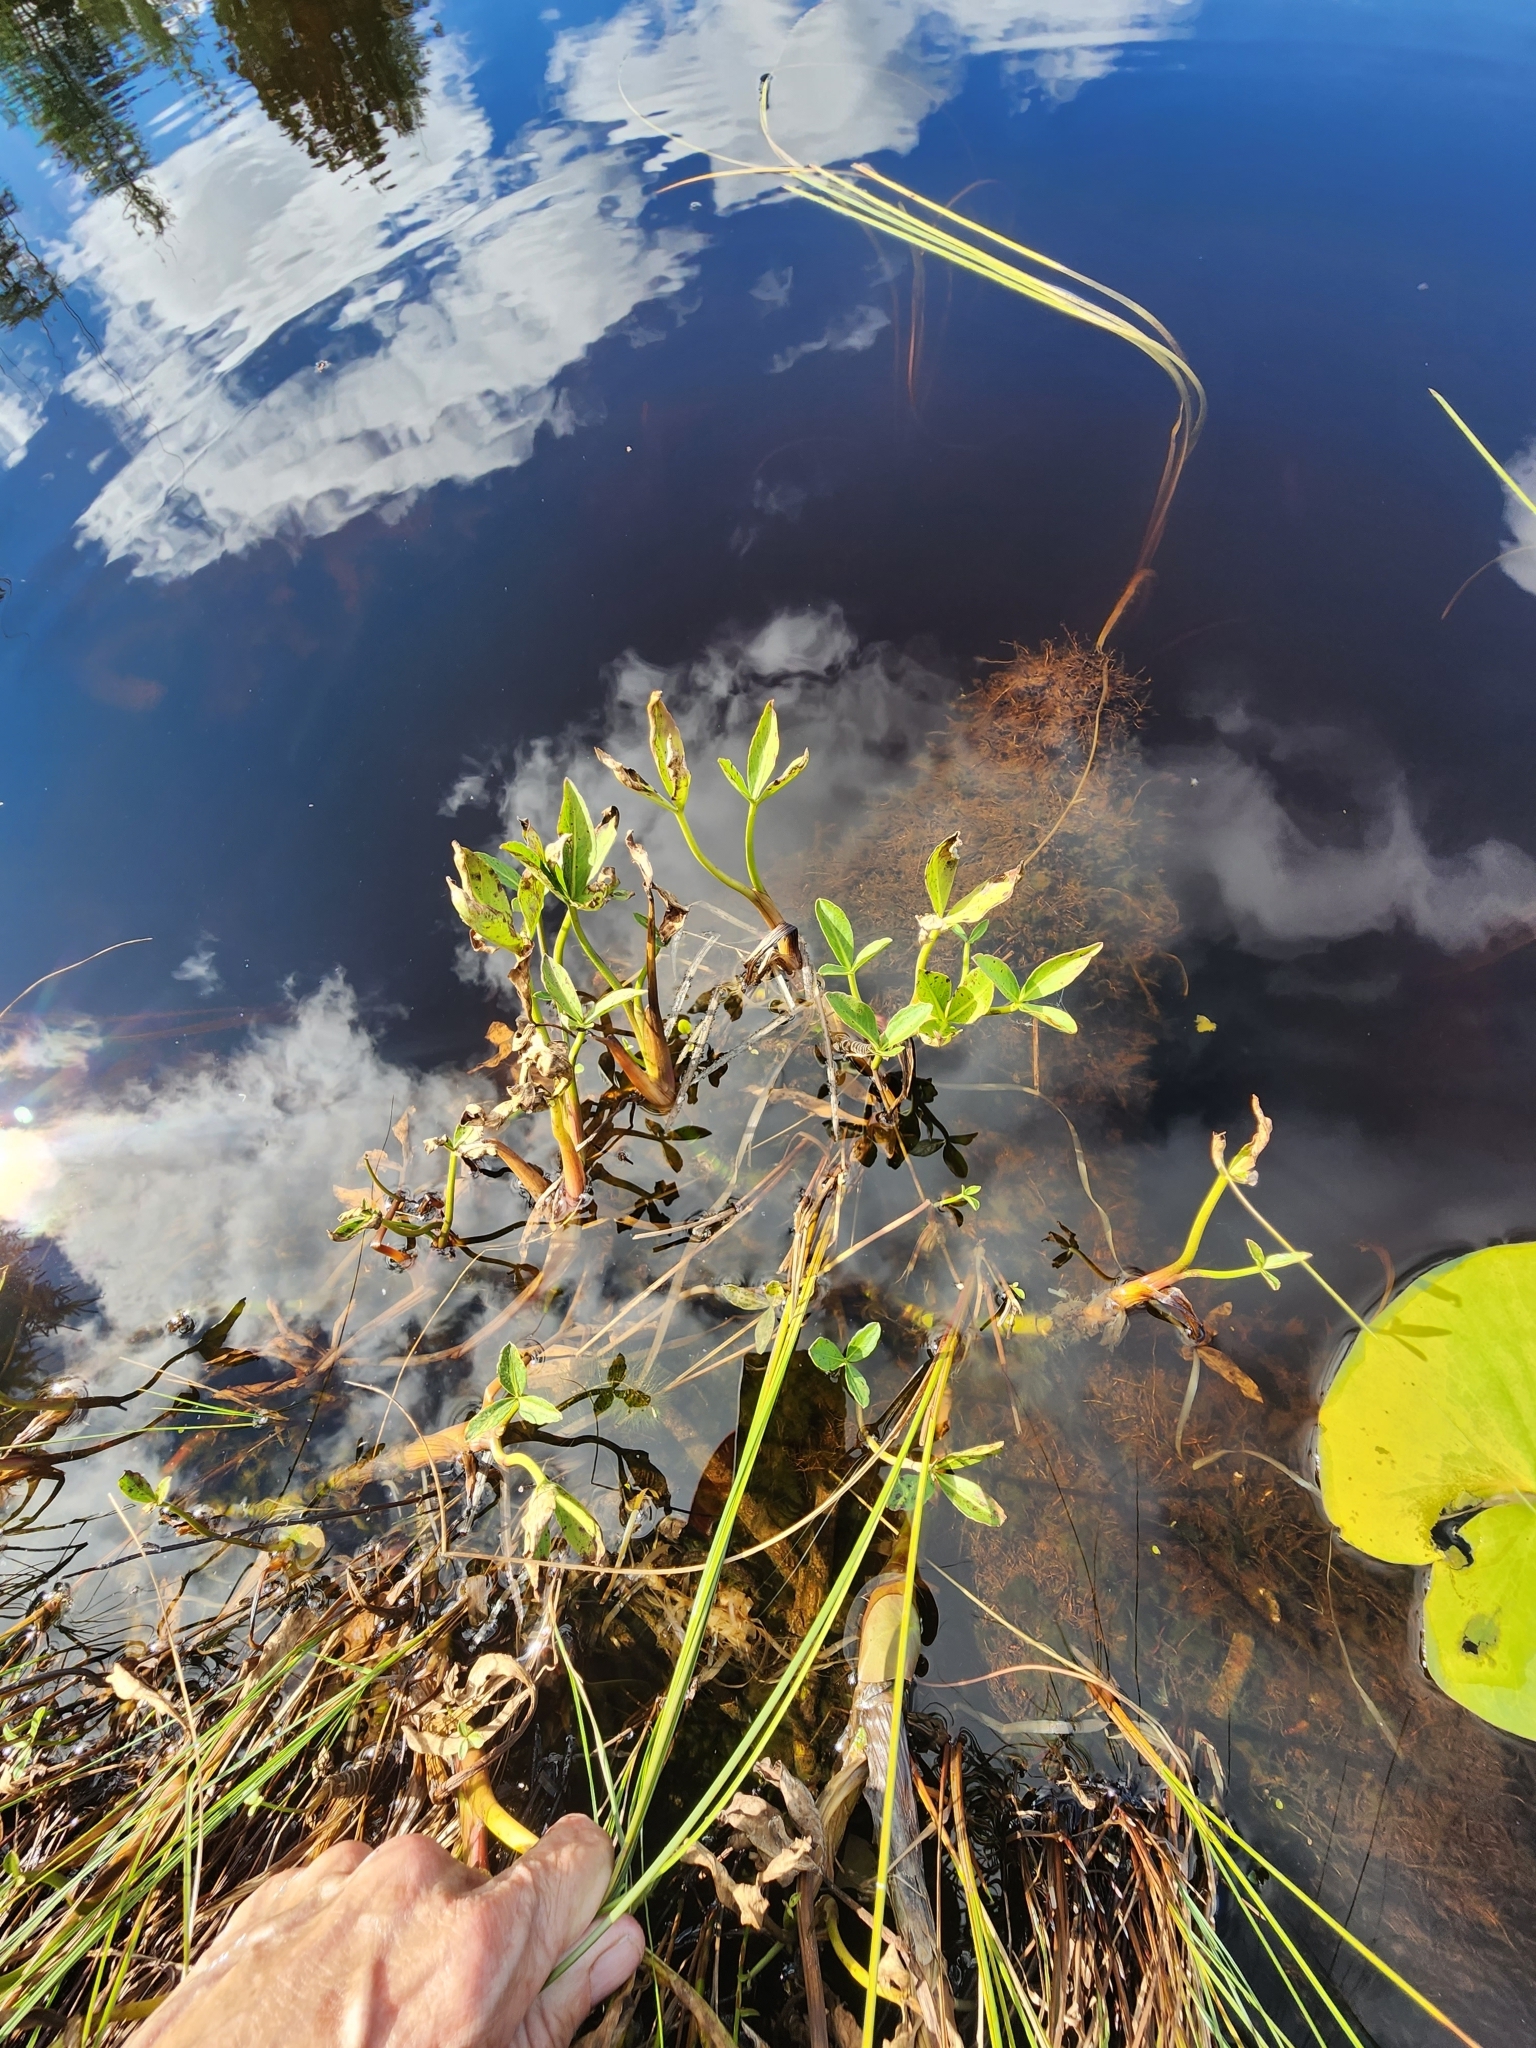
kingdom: Plantae
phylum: Tracheophyta
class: Magnoliopsida
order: Asterales
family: Menyanthaceae
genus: Menyanthes
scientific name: Menyanthes trifoliata
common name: Bogbean
